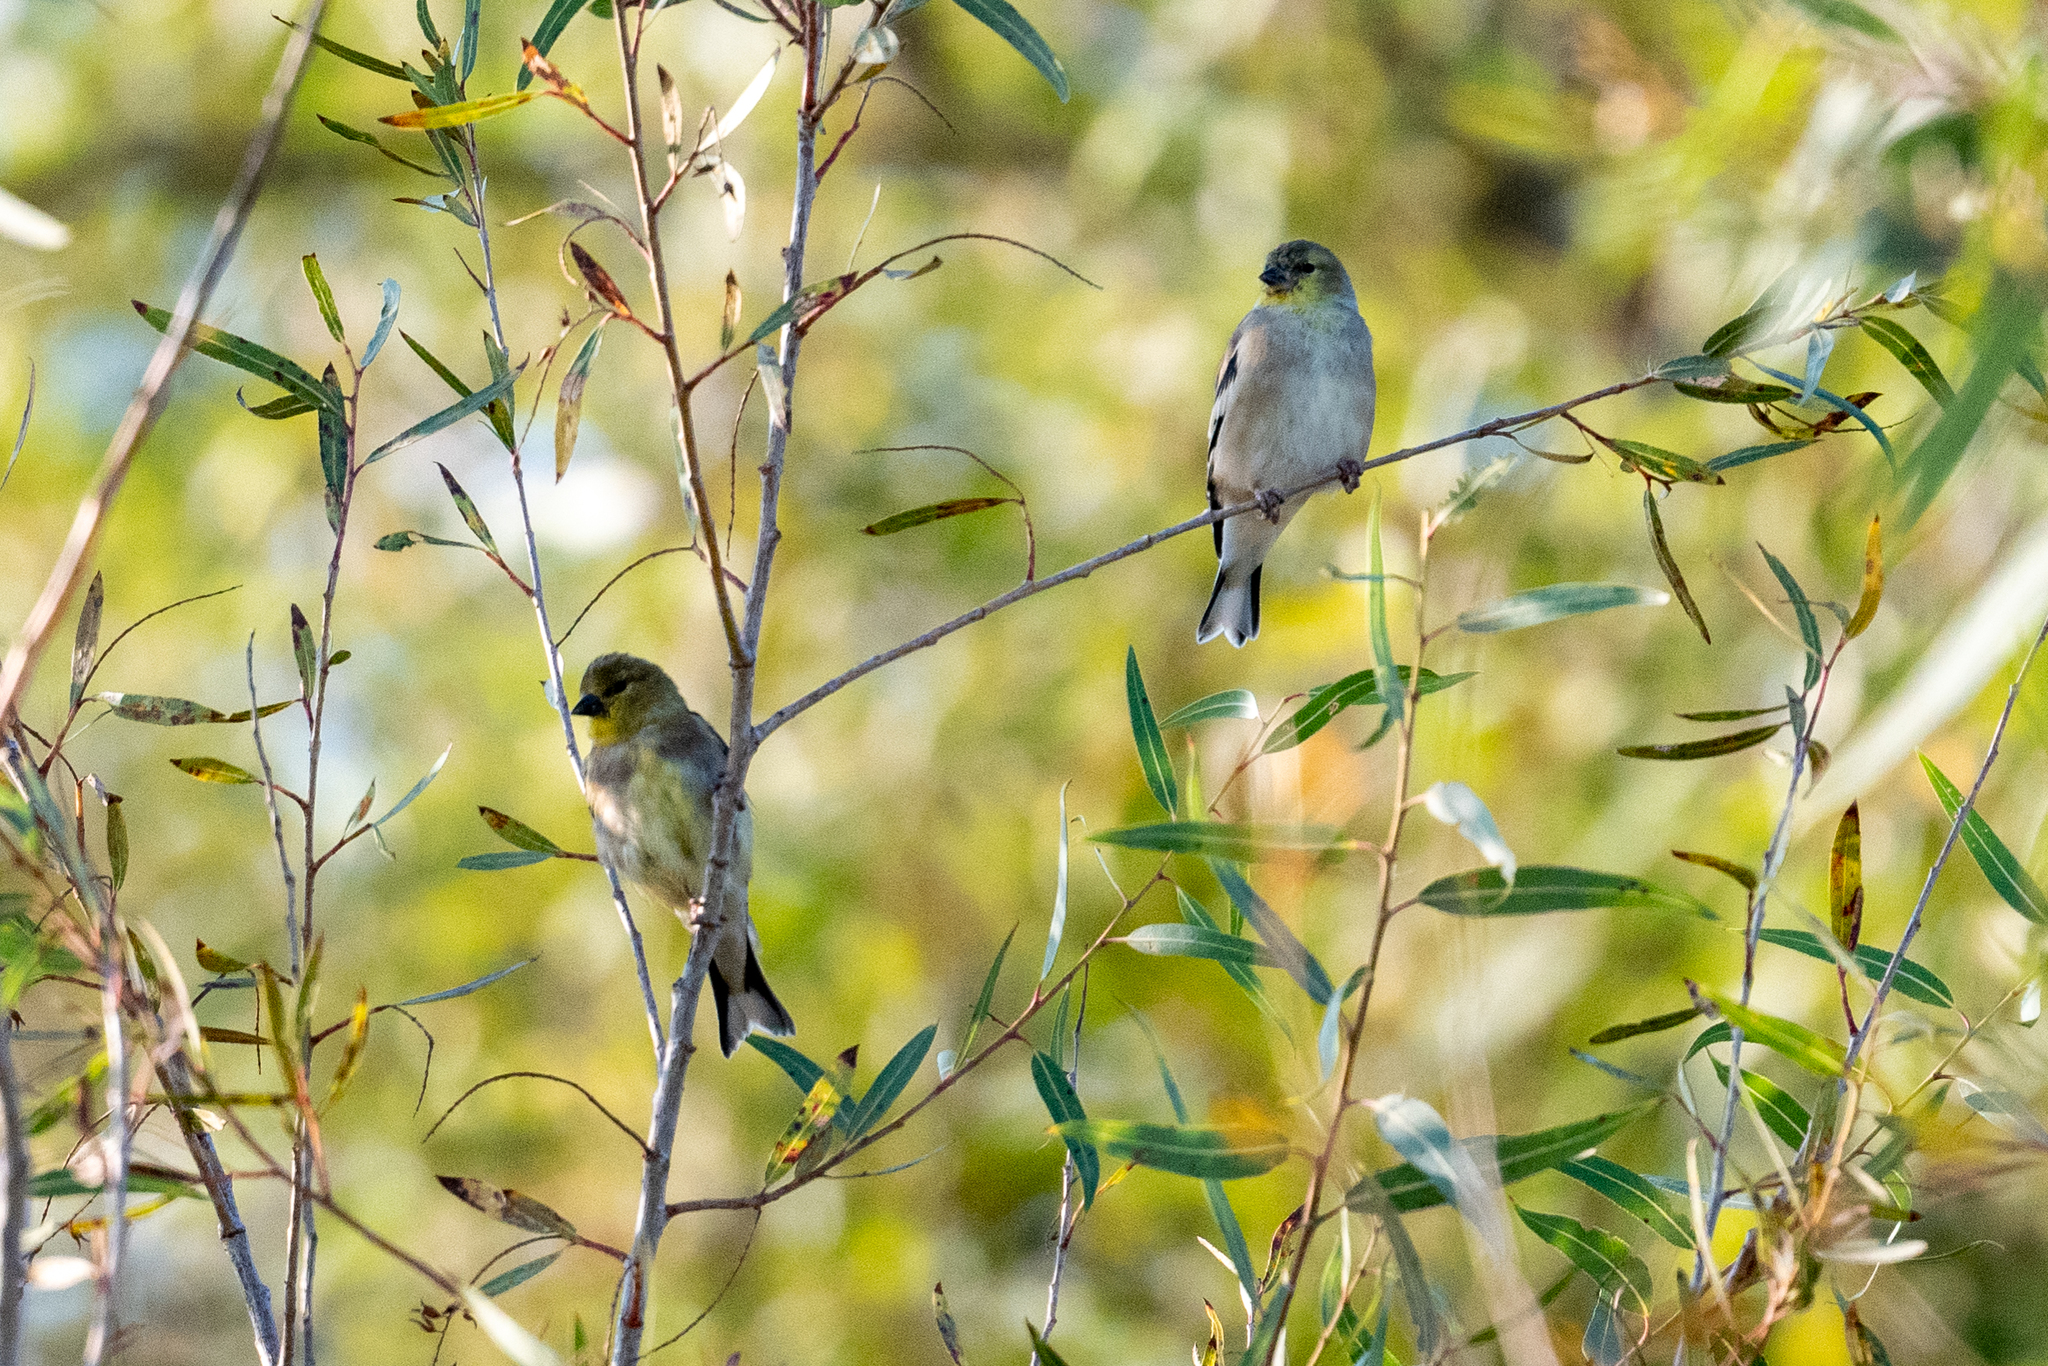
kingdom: Animalia
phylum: Chordata
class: Aves
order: Passeriformes
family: Fringillidae
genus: Spinus
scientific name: Spinus tristis
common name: American goldfinch
